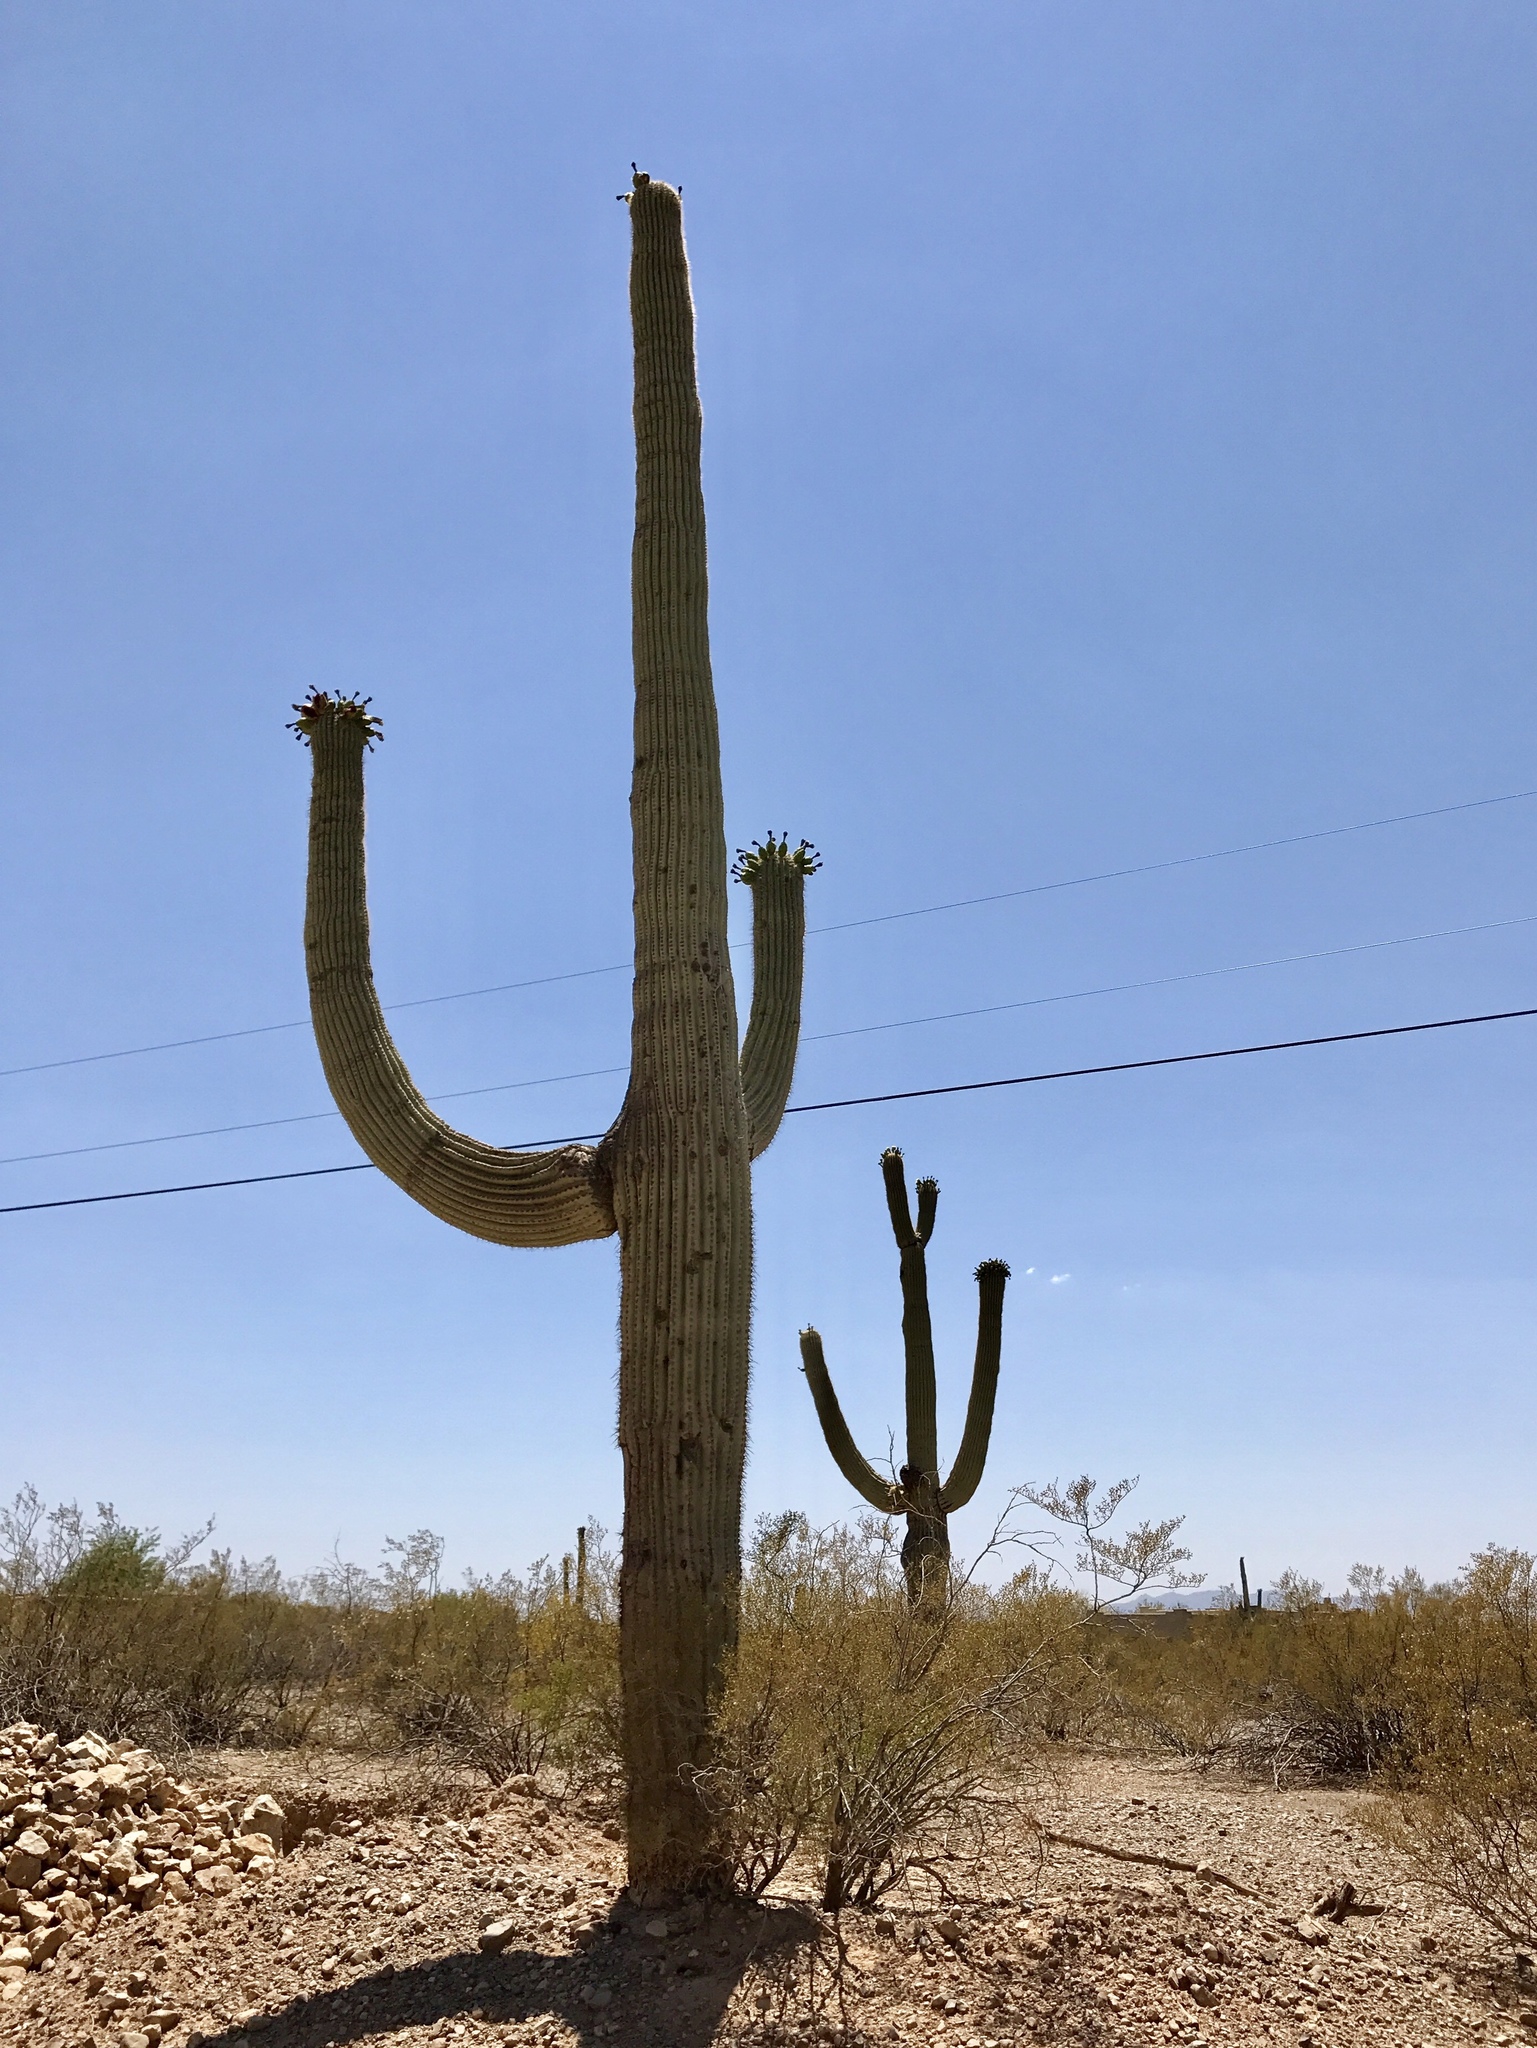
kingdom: Plantae
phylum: Tracheophyta
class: Magnoliopsida
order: Caryophyllales
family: Cactaceae
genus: Carnegiea
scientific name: Carnegiea gigantea
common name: Saguaro
